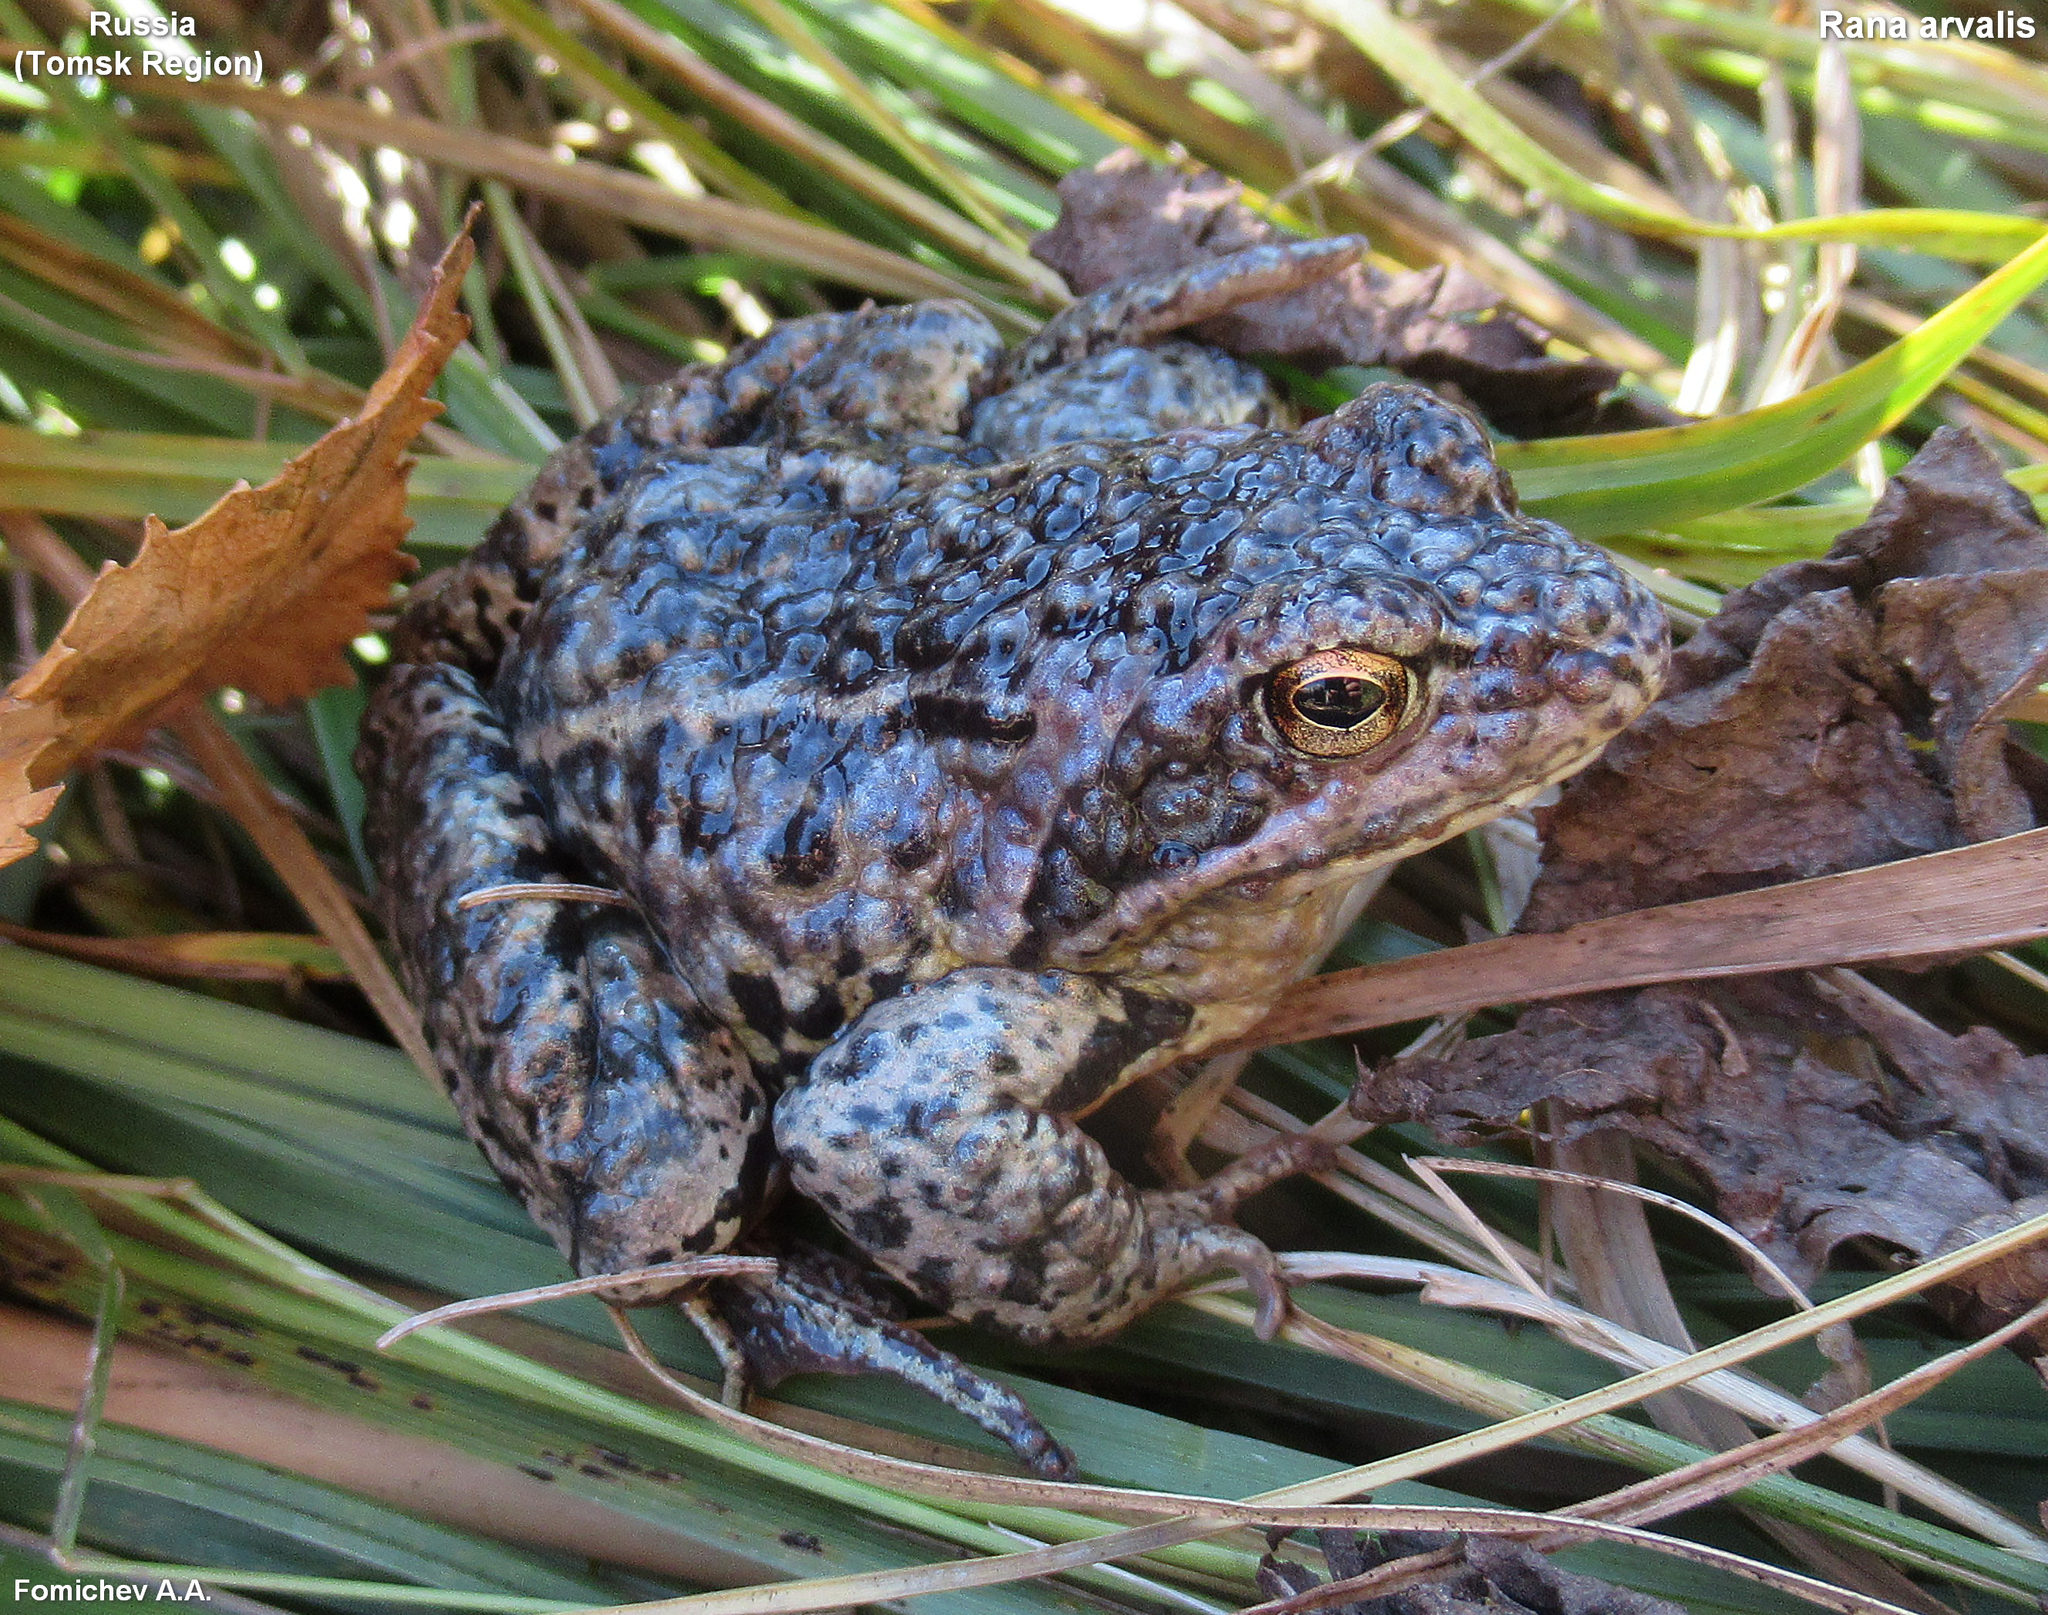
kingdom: Animalia
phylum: Chordata
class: Amphibia
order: Anura
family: Ranidae
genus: Rana
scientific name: Rana arvalis
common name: Moor frog
